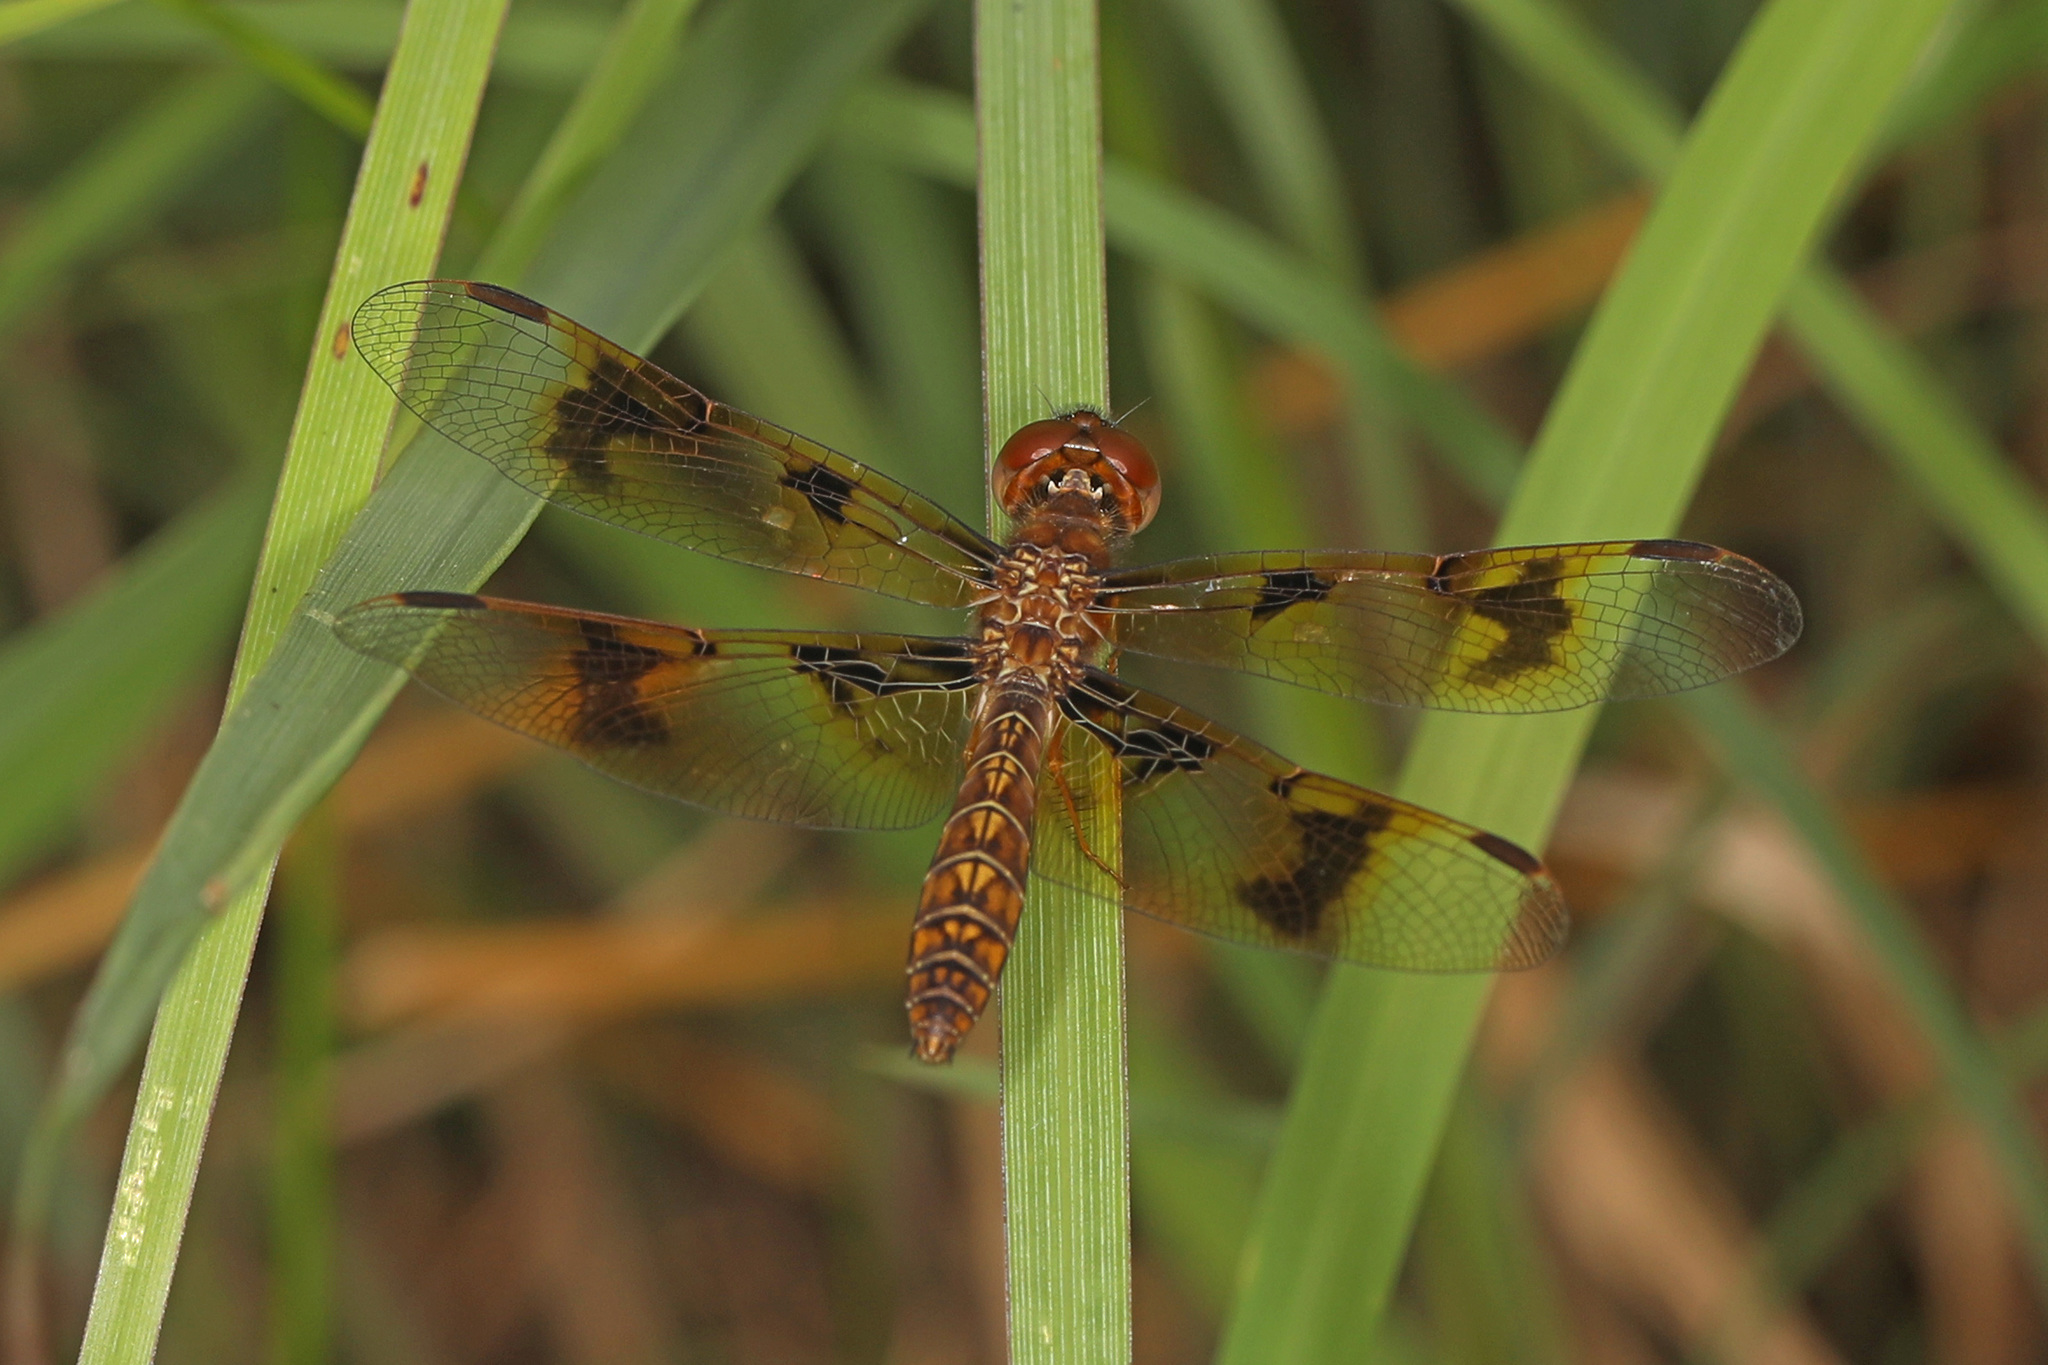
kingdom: Animalia
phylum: Arthropoda
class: Insecta
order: Odonata
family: Libellulidae
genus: Perithemis
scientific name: Perithemis tenera
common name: Eastern amberwing
